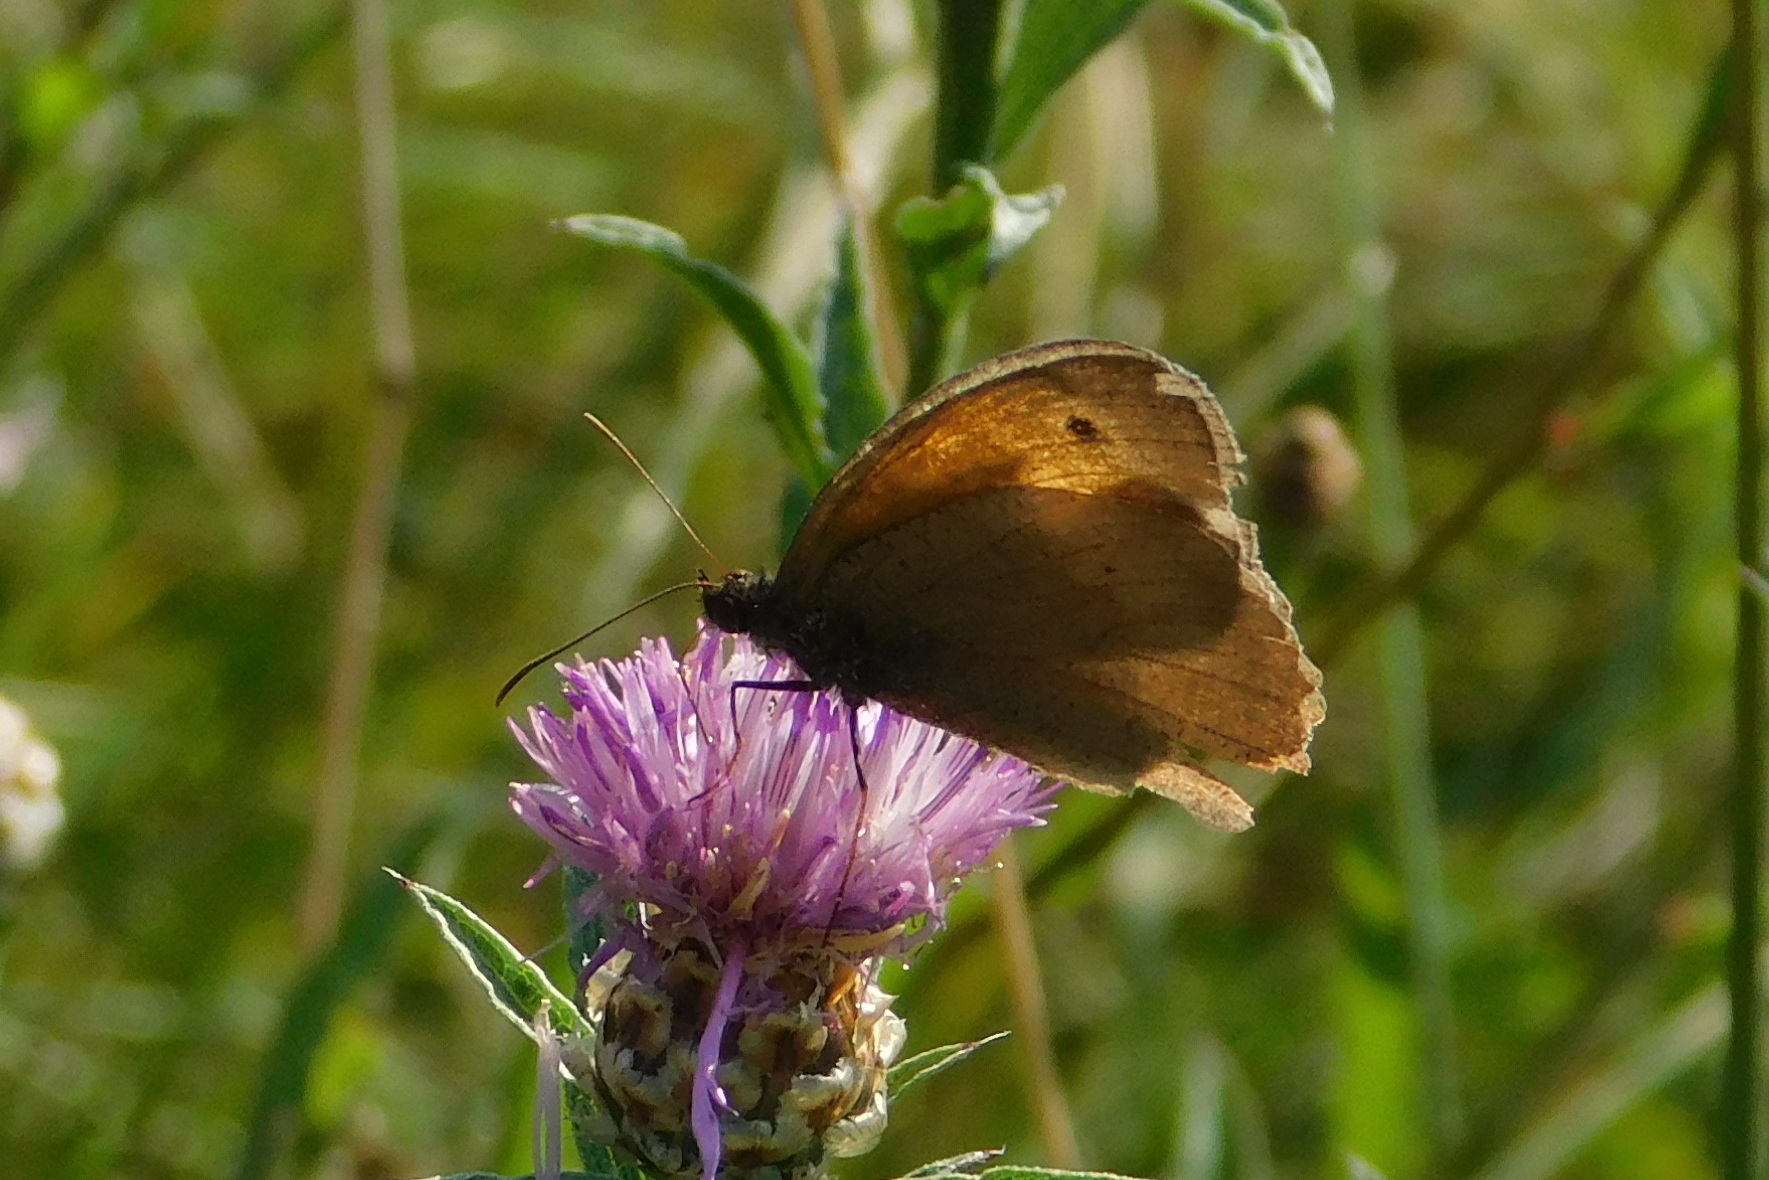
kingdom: Animalia
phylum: Arthropoda
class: Insecta
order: Lepidoptera
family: Nymphalidae
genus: Maniola
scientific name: Maniola jurtina
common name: Meadow brown
